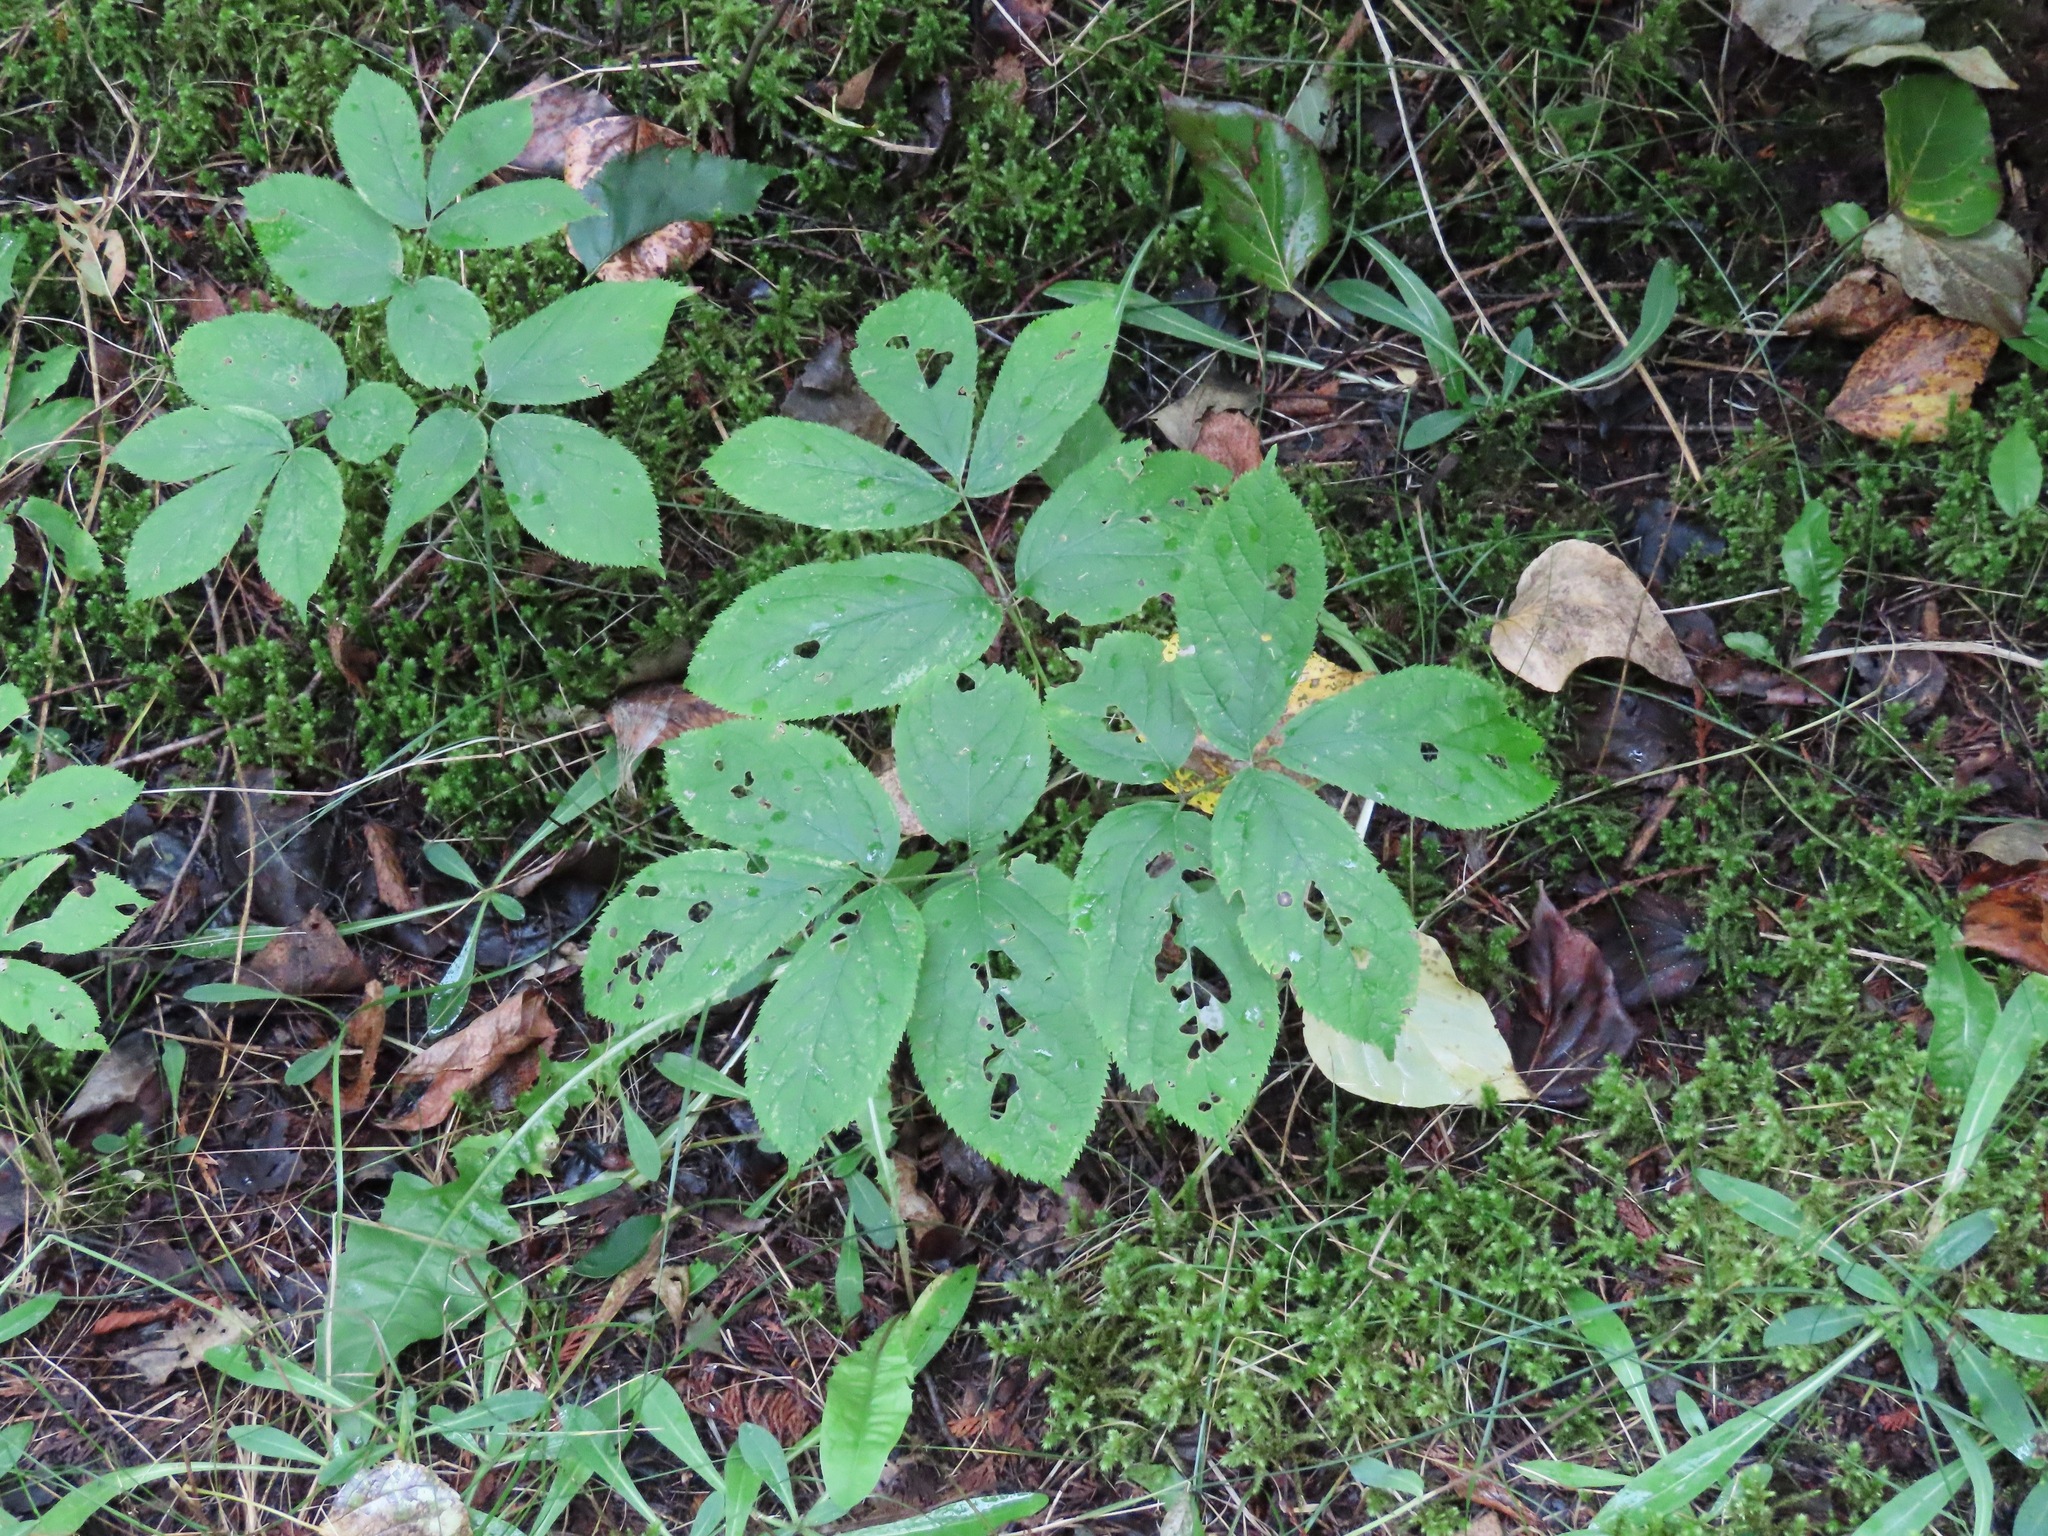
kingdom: Plantae
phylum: Tracheophyta
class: Magnoliopsida
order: Apiales
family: Araliaceae
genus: Aralia
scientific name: Aralia nudicaulis
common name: Wild sarsaparilla
